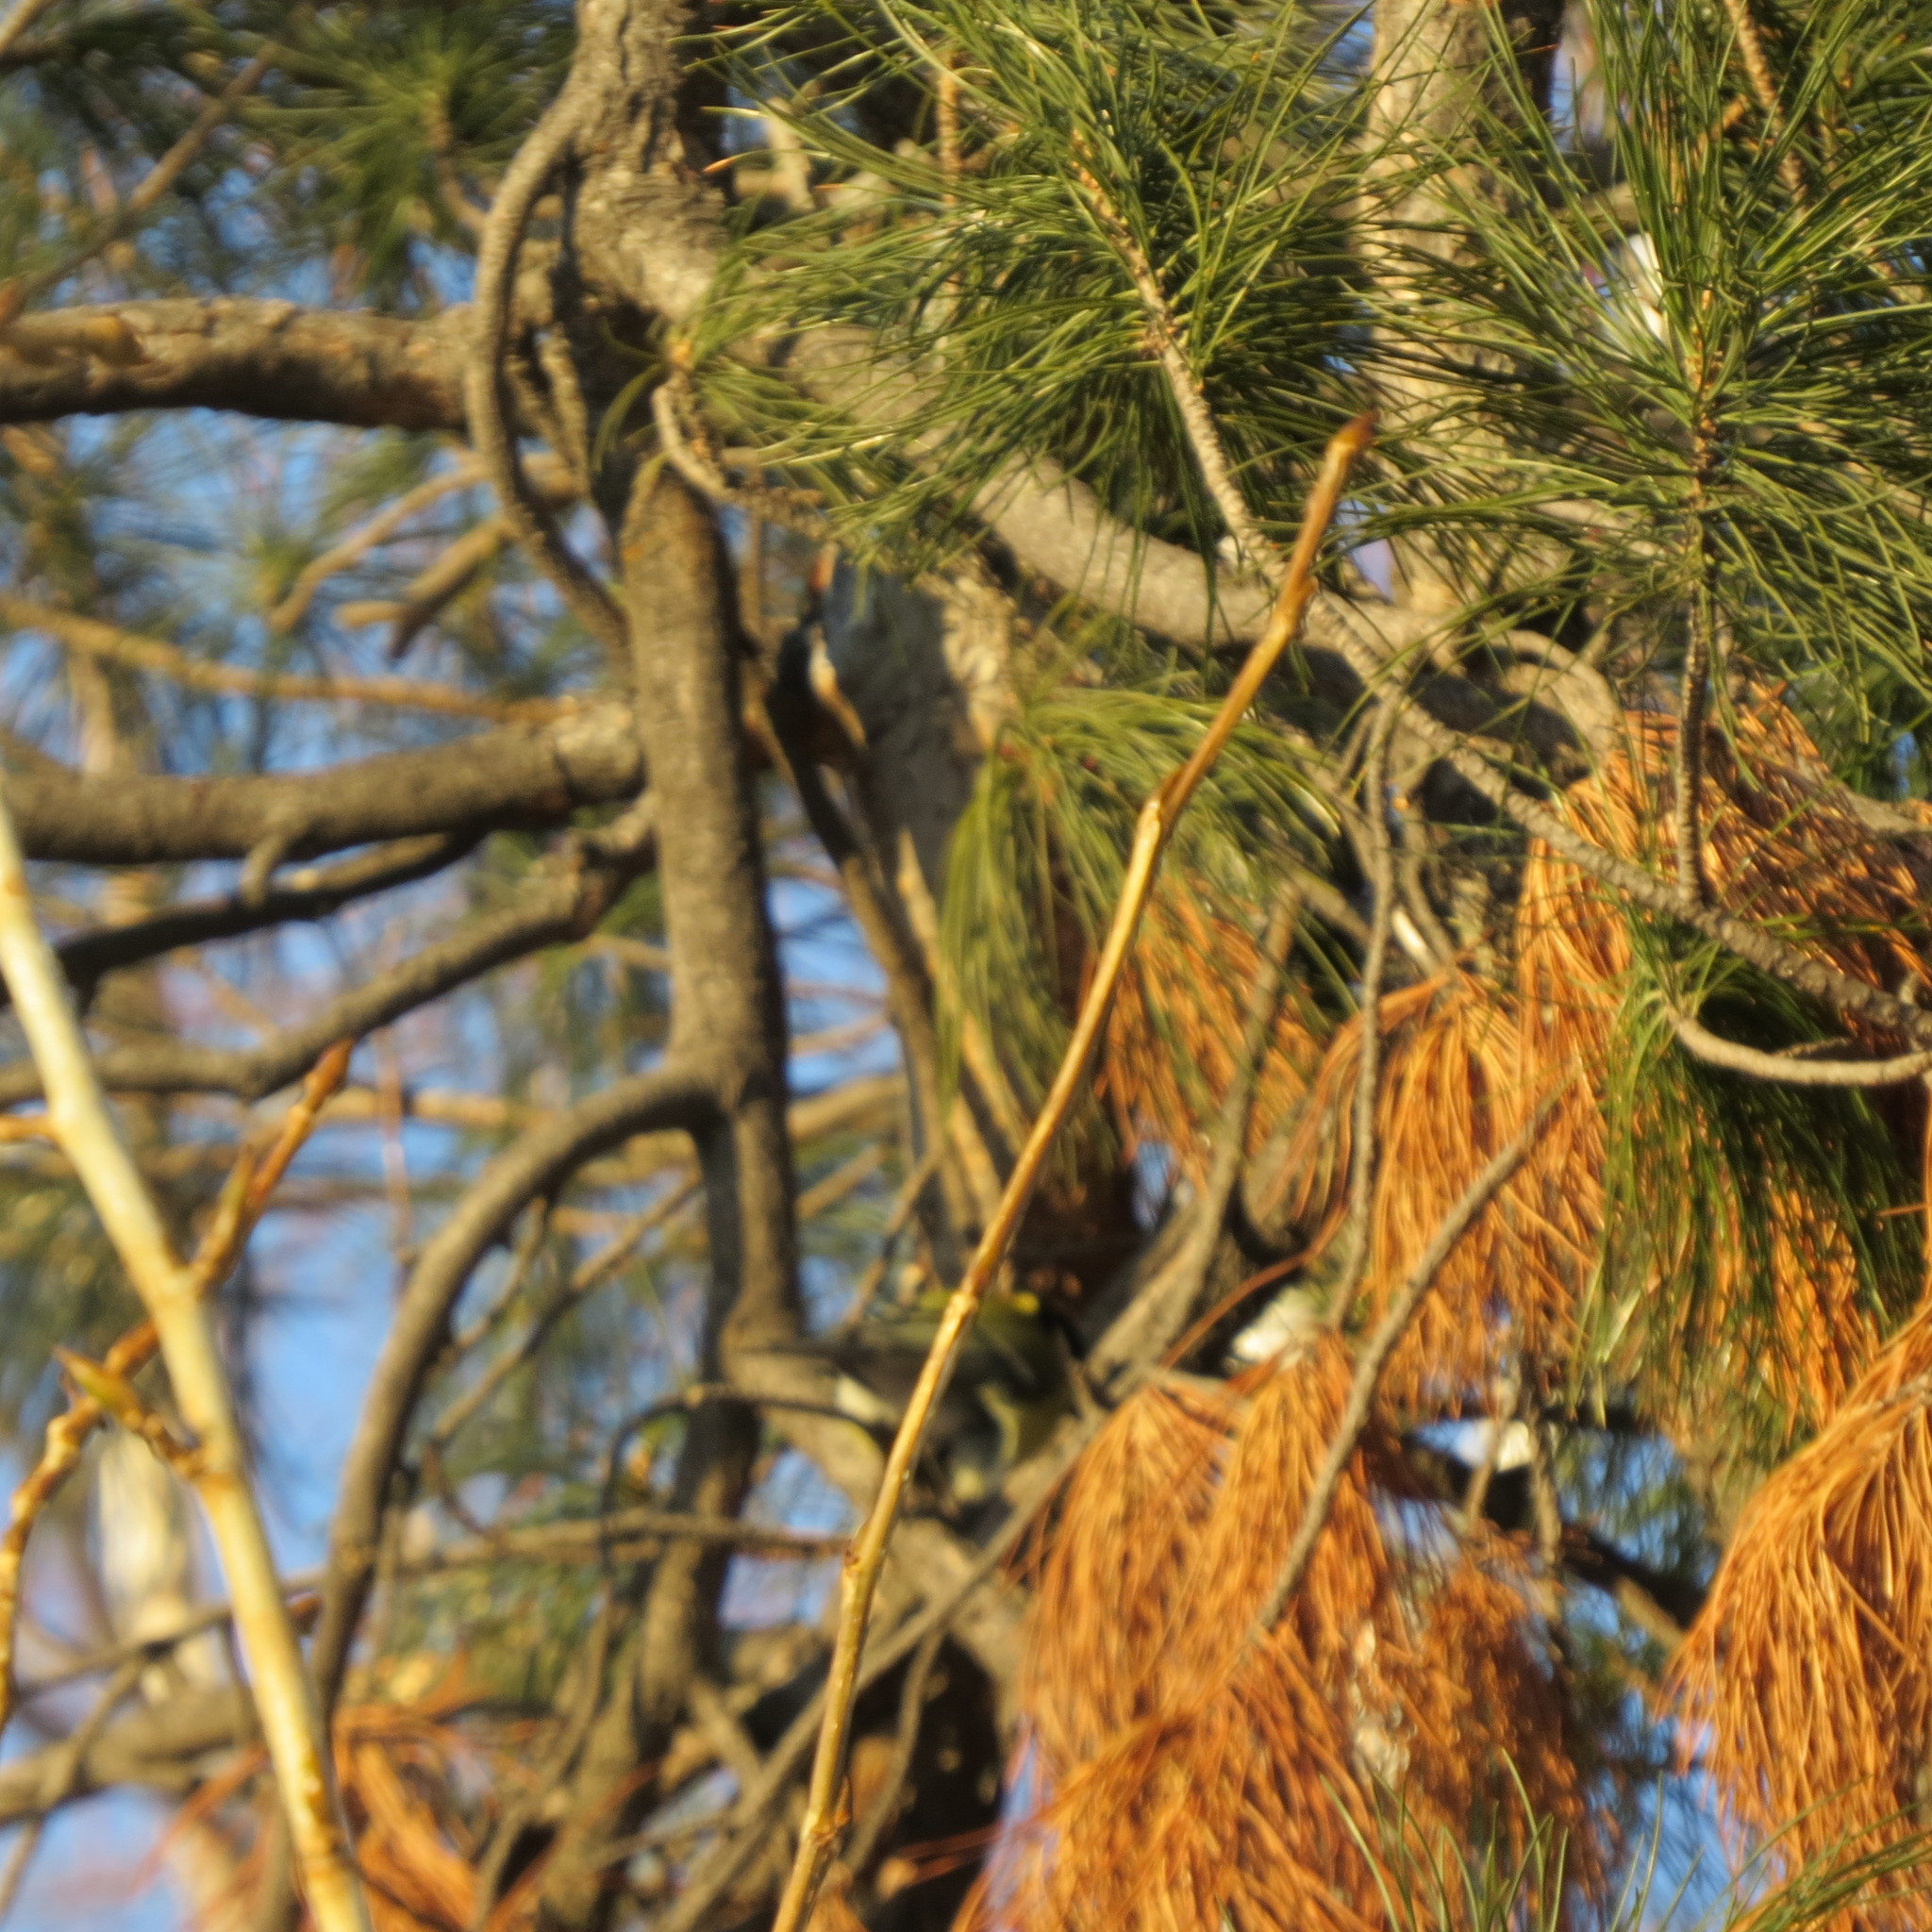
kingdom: Animalia
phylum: Chordata
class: Aves
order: Passeriformes
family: Paridae
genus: Parus
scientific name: Parus major
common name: Great tit
